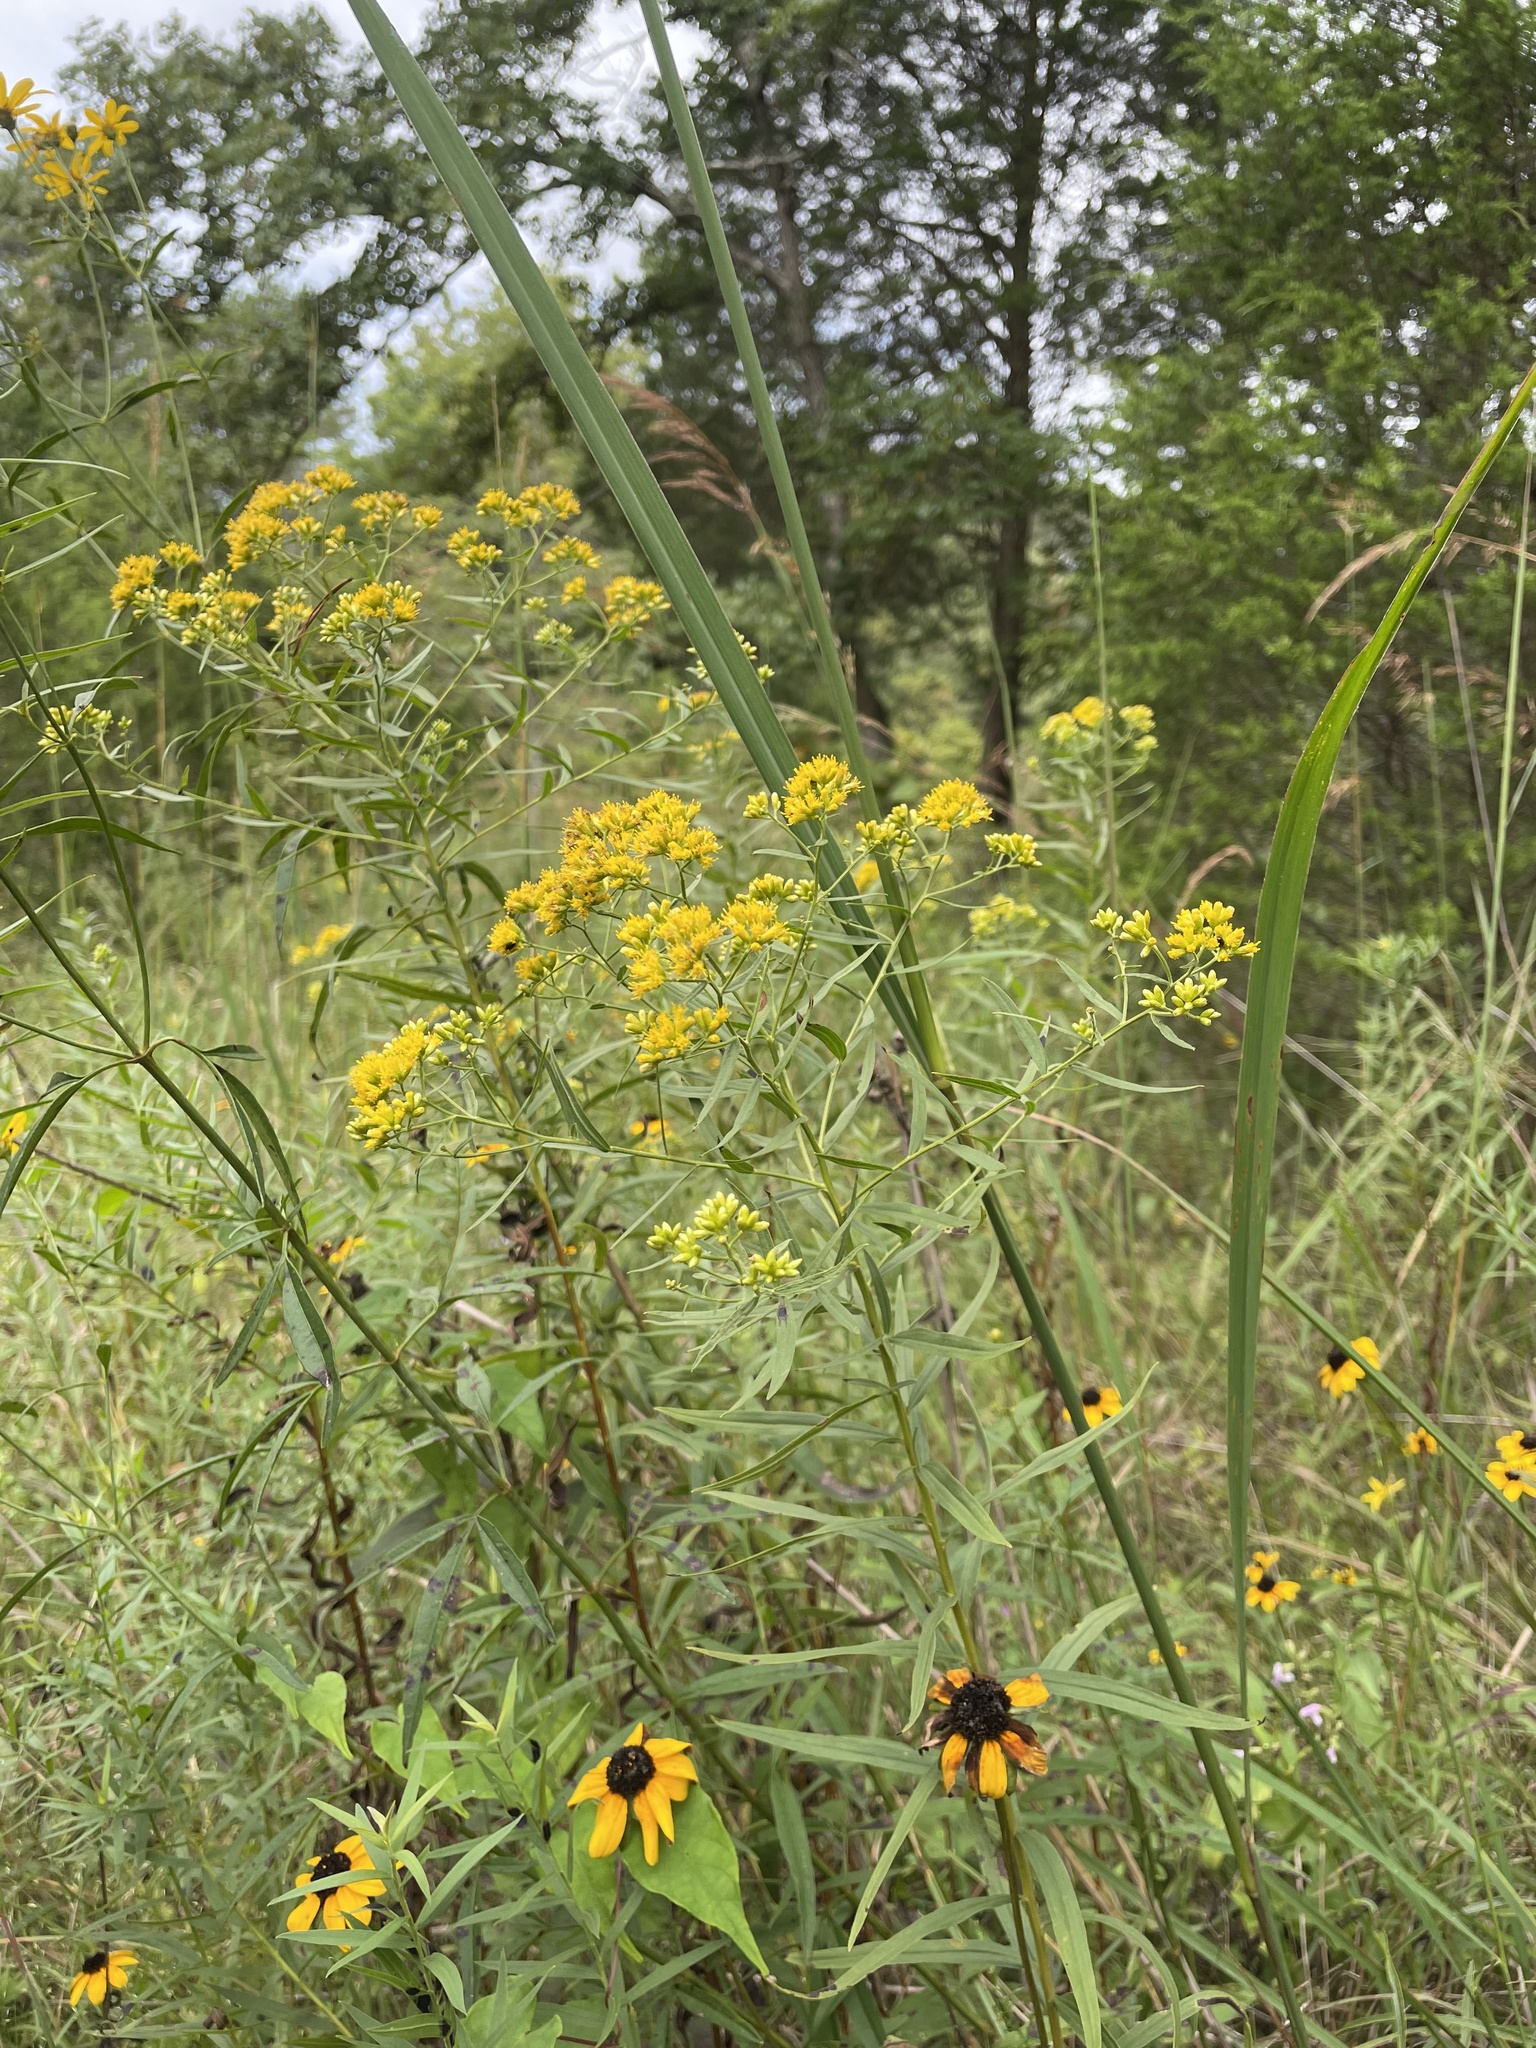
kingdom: Plantae
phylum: Tracheophyta
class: Magnoliopsida
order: Asterales
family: Asteraceae
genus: Euthamia
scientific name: Euthamia graminifolia
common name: Common goldentop
